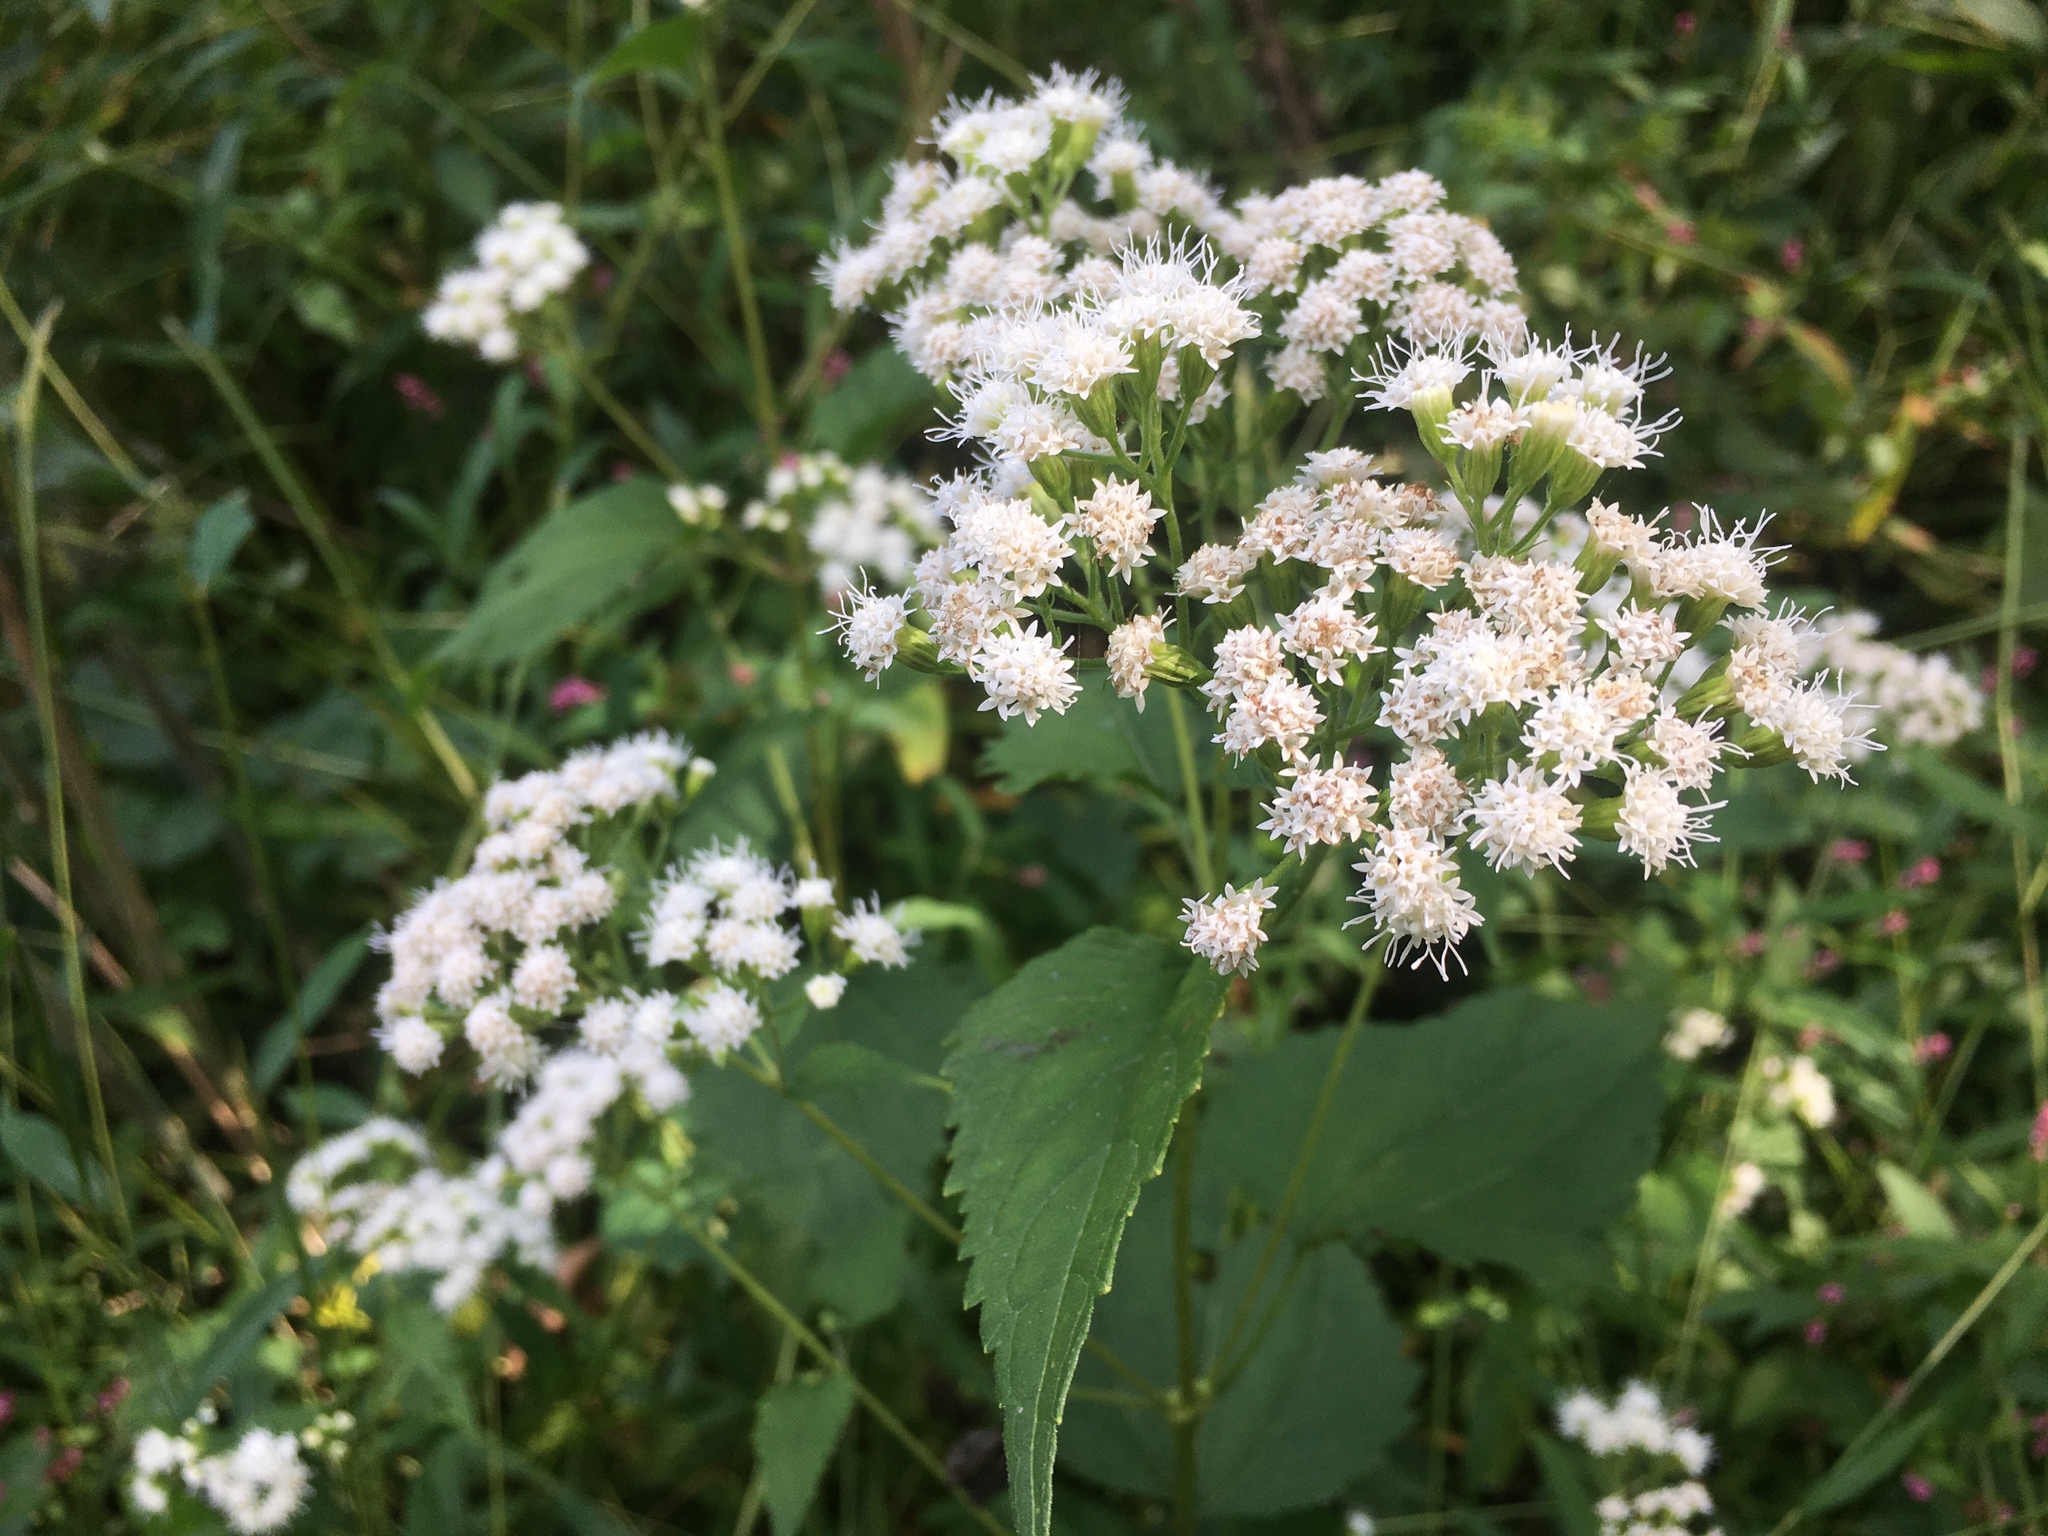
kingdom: Plantae
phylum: Tracheophyta
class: Magnoliopsida
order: Asterales
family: Asteraceae
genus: Ageratina
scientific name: Ageratina altissima
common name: White snakeroot
